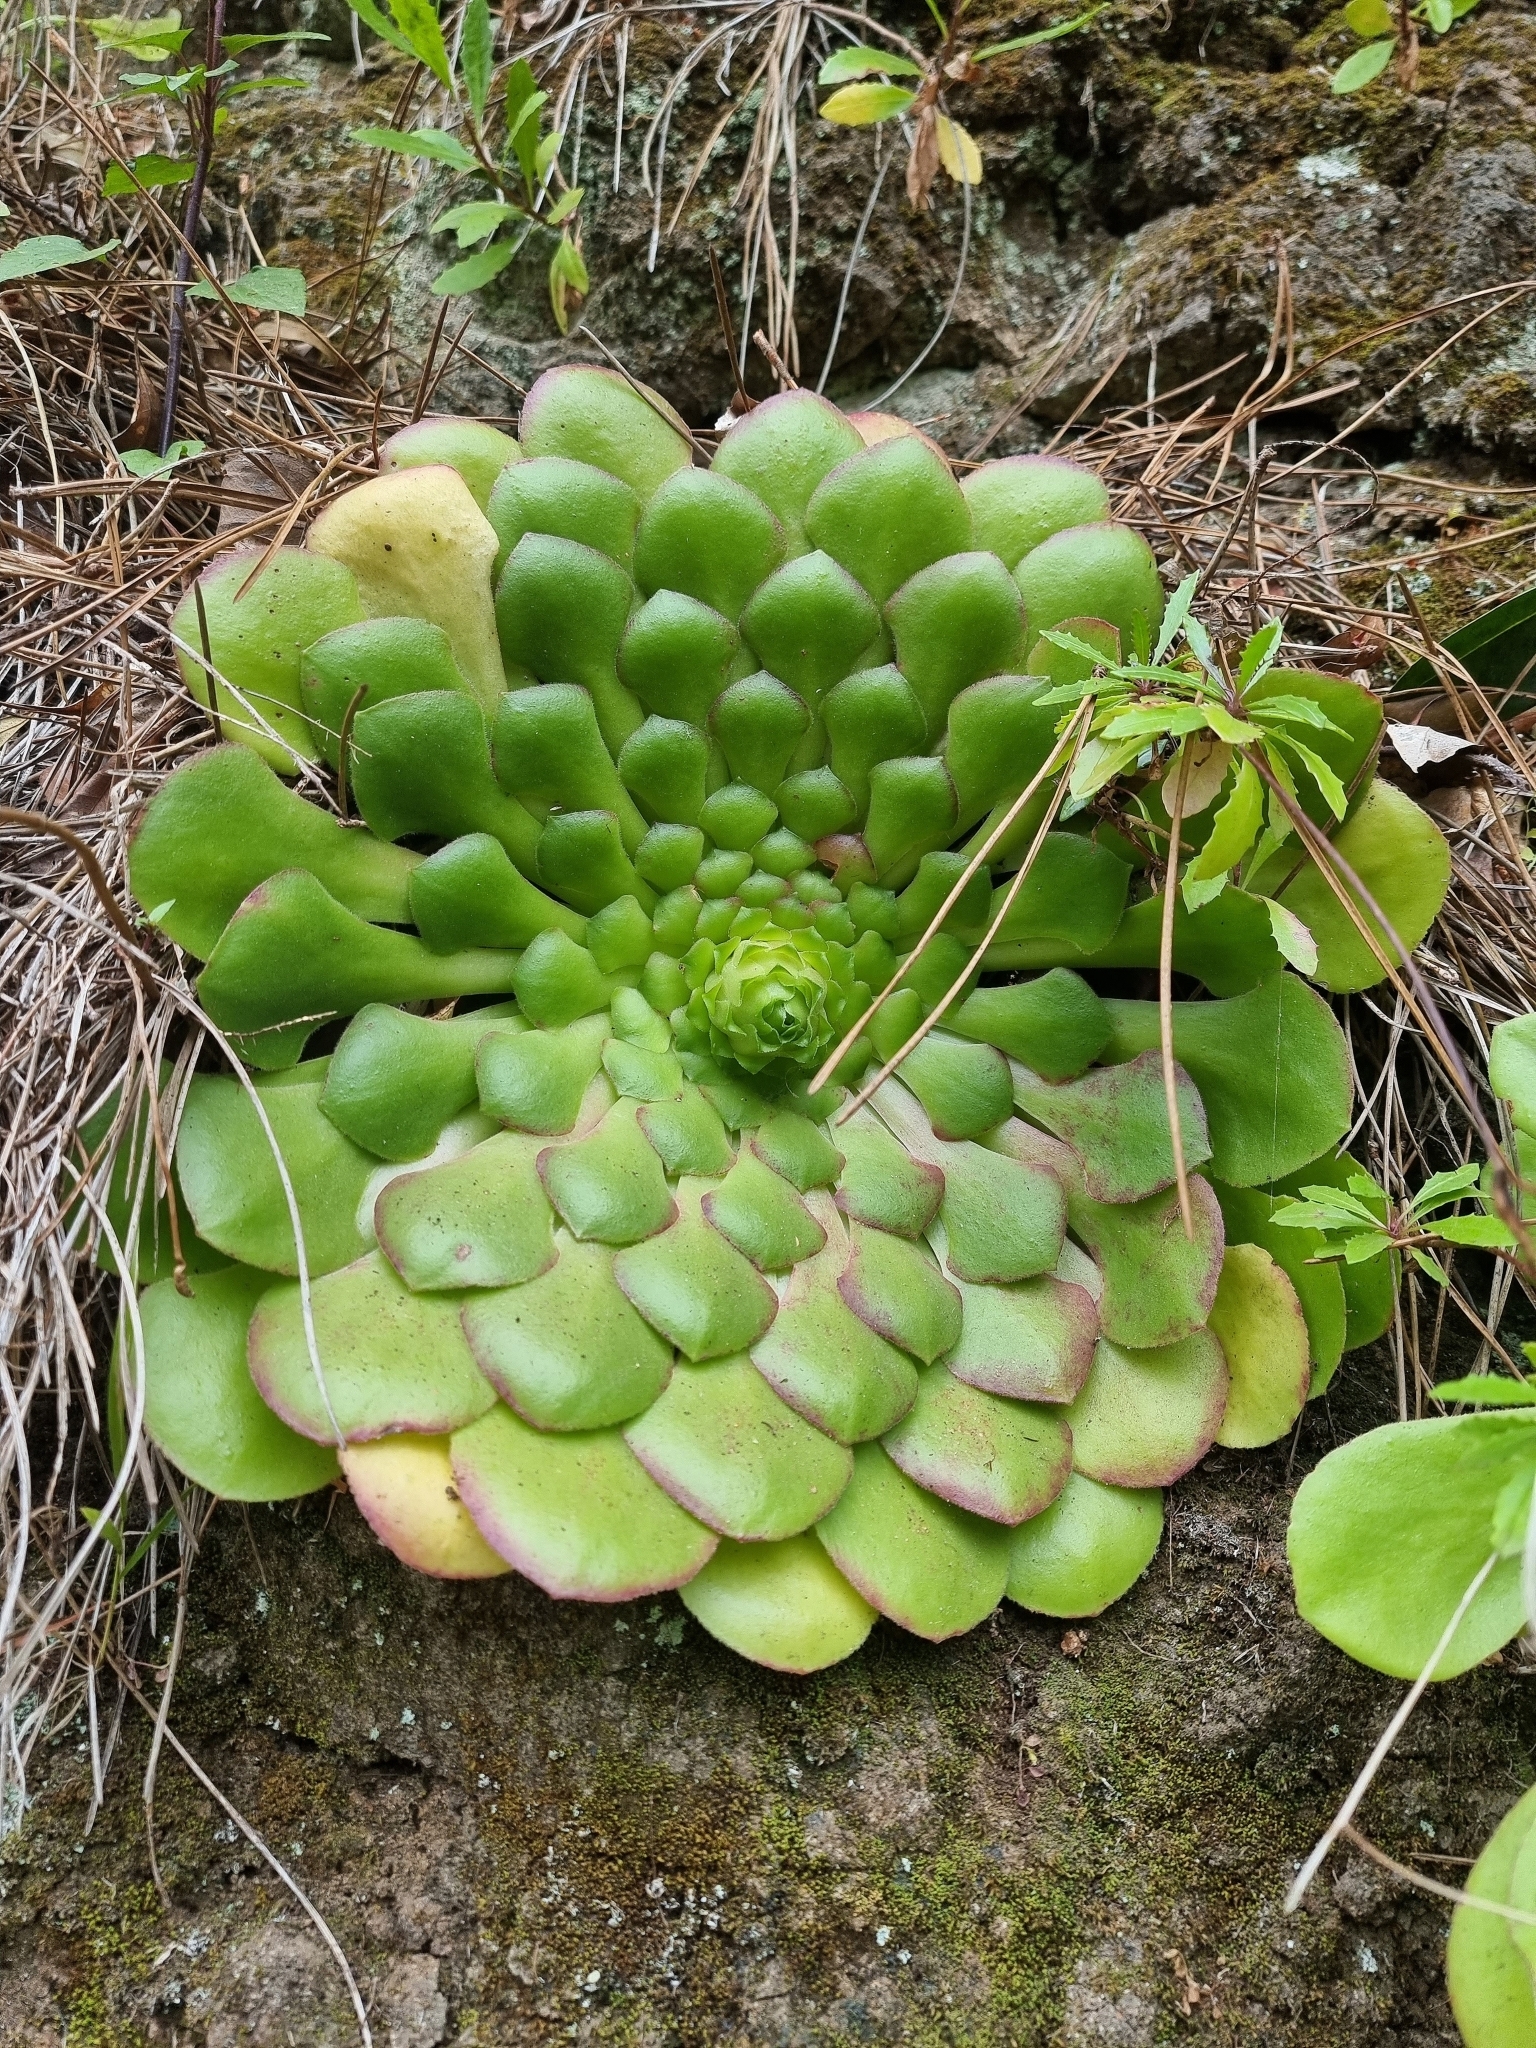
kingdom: Plantae
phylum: Tracheophyta
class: Magnoliopsida
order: Saxifragales
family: Crassulaceae
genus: Aeonium
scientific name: Aeonium glandulosum
